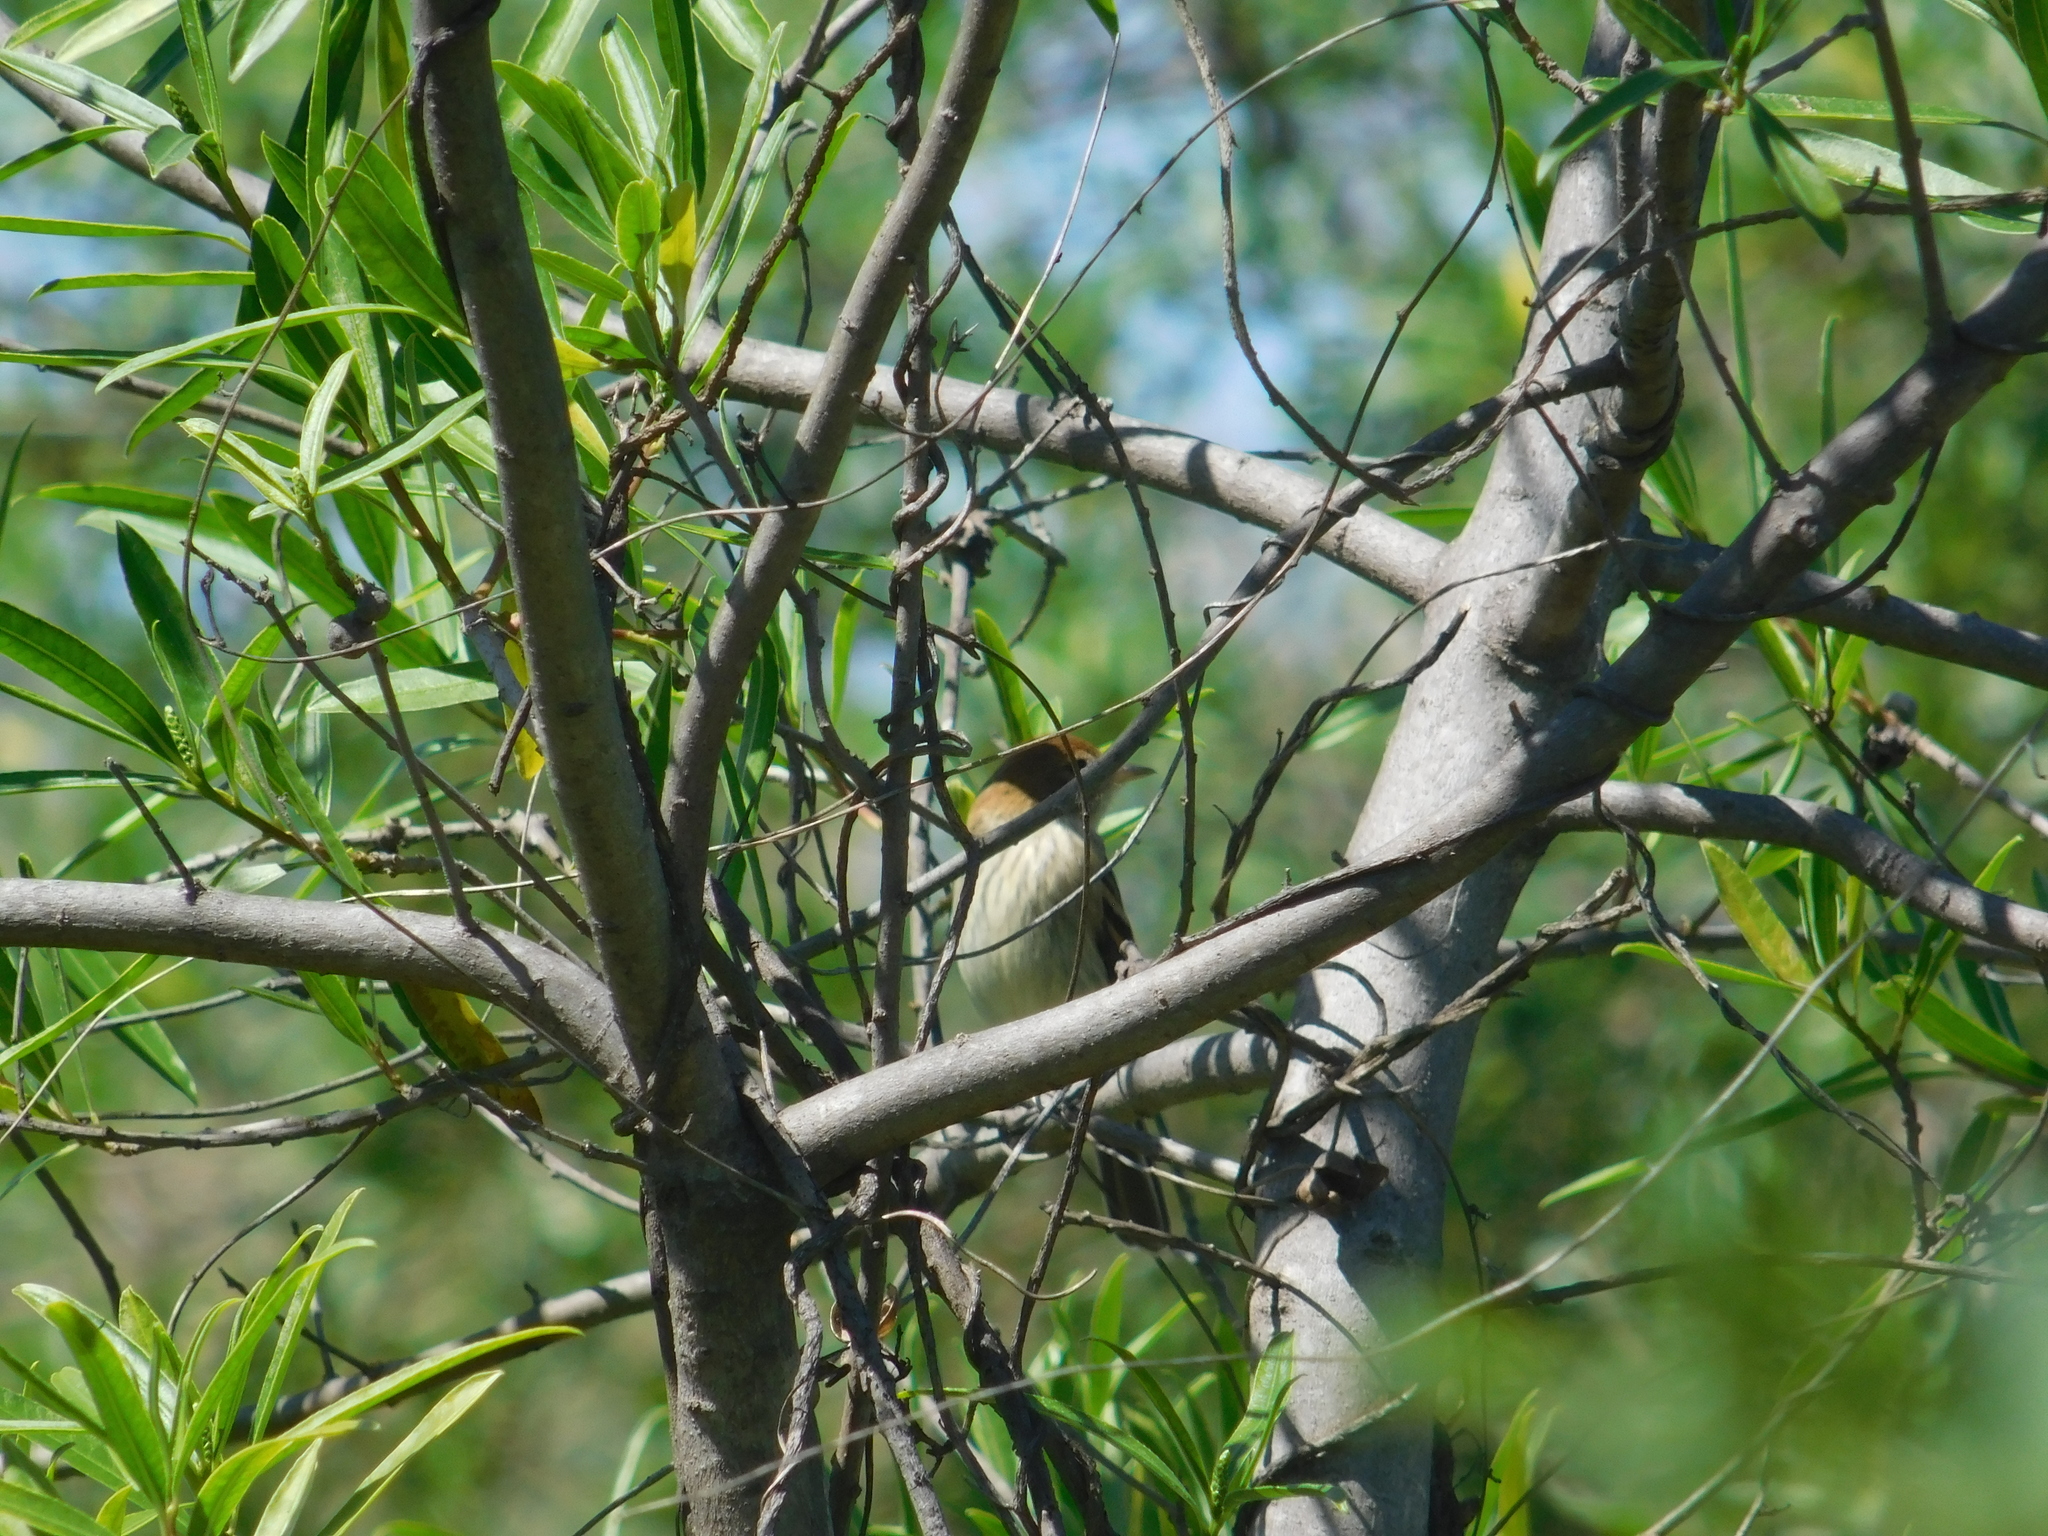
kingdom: Animalia
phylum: Chordata
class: Aves
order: Passeriformes
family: Tyrannidae
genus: Myiophobus
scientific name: Myiophobus fasciatus
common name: Bran-colored flycatcher
